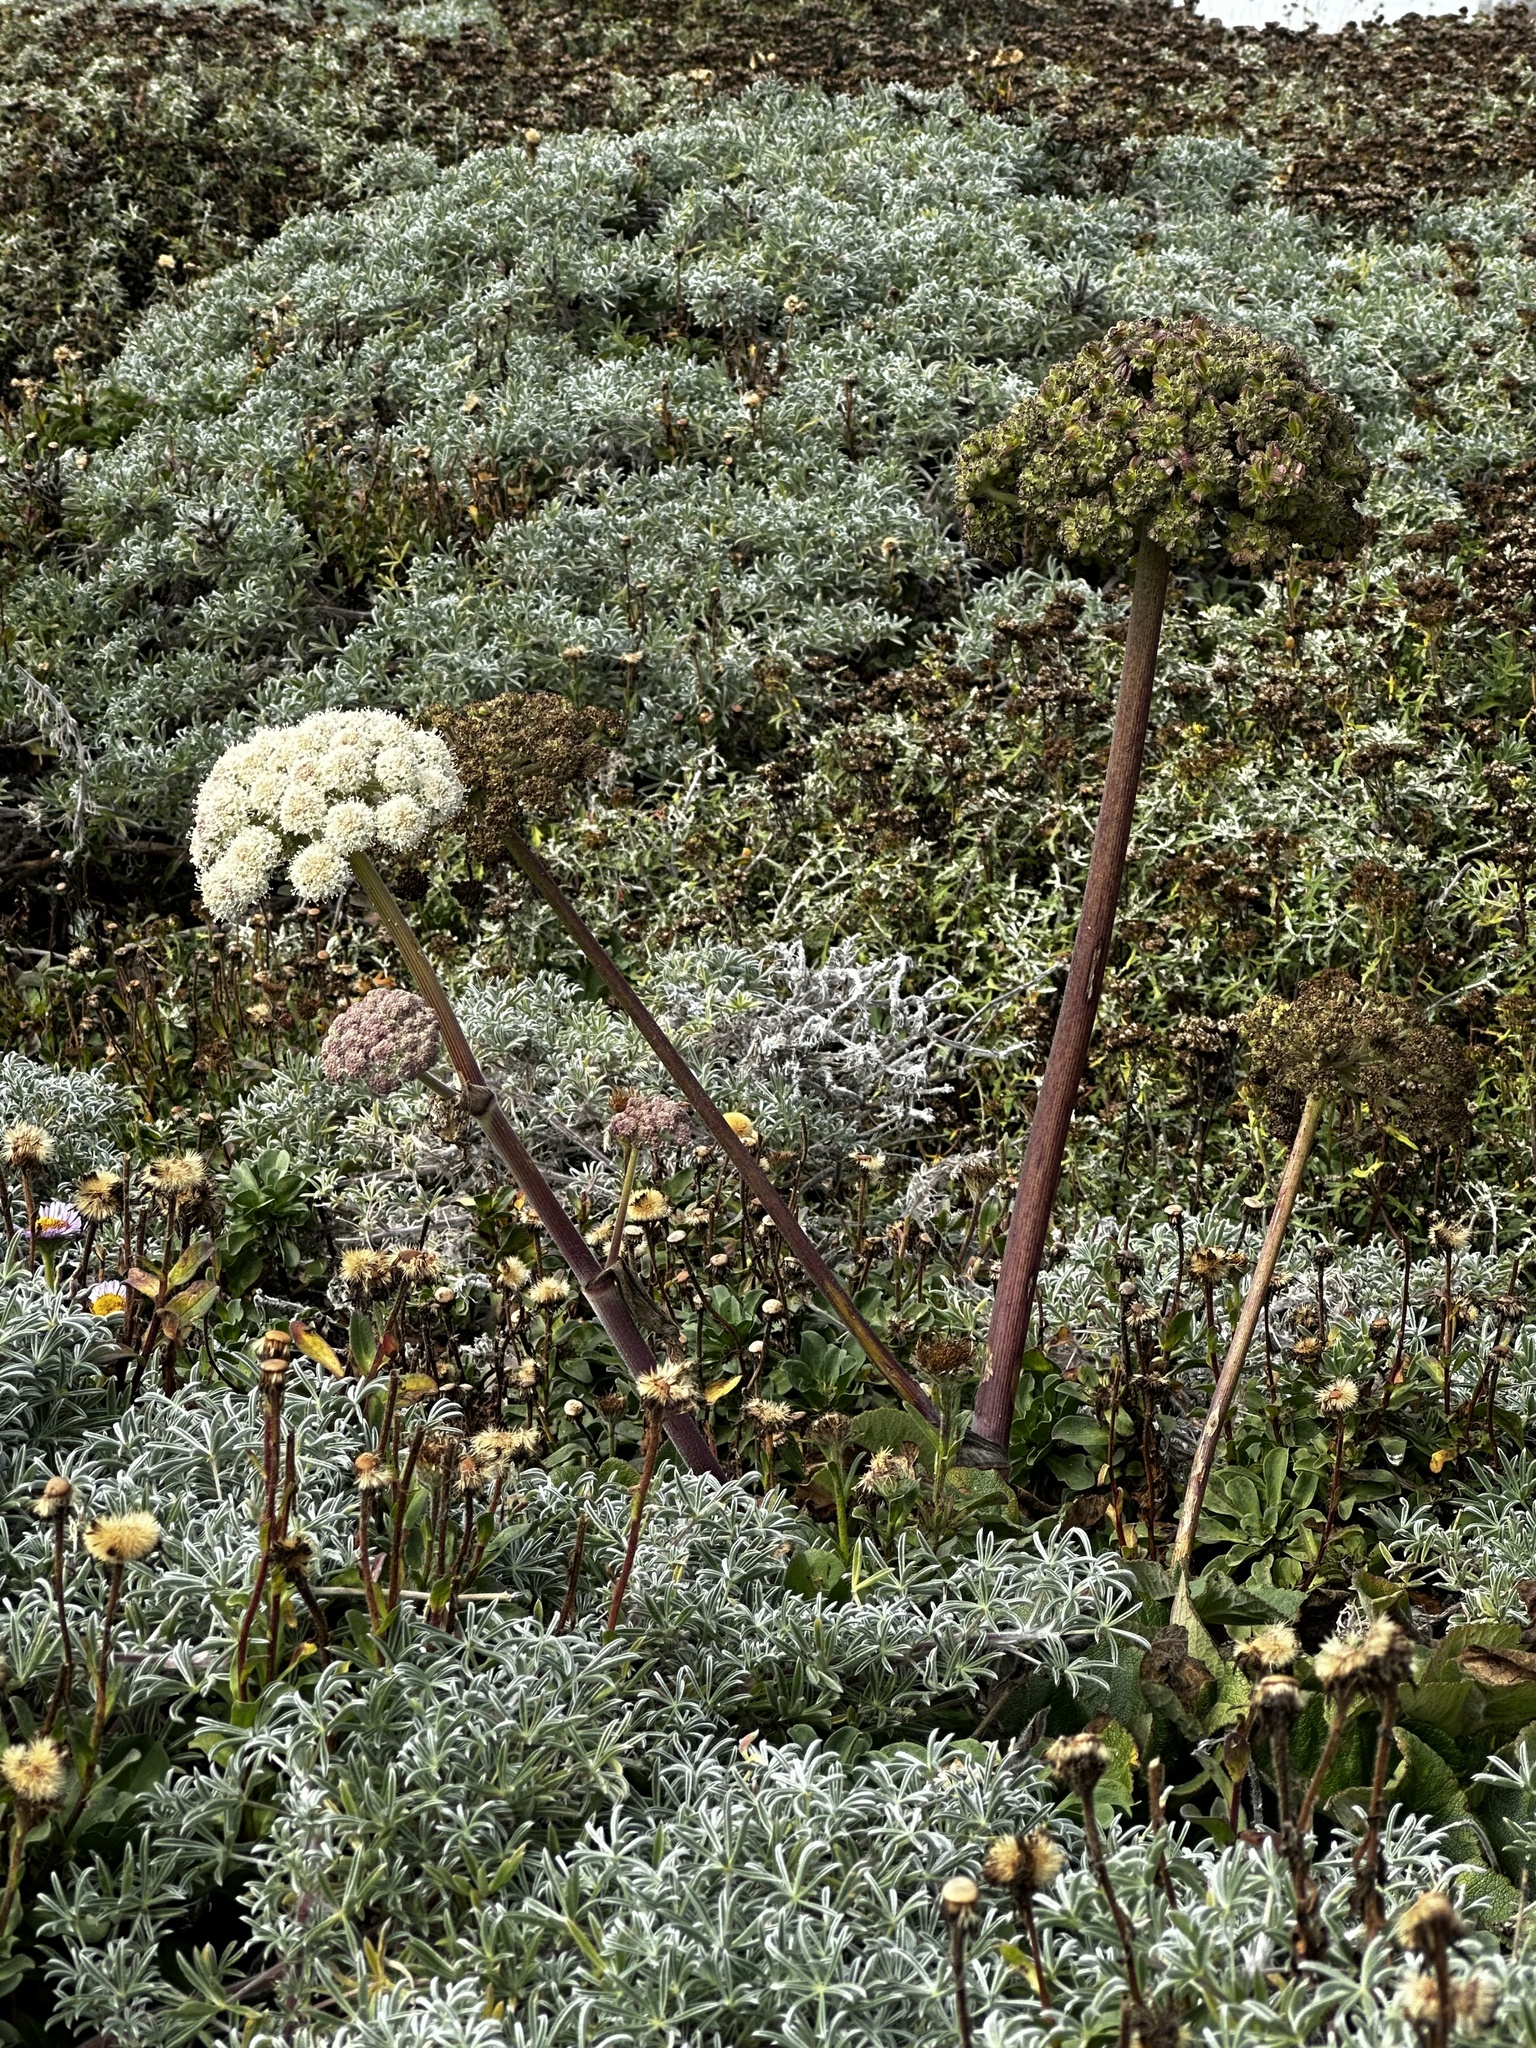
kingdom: Plantae
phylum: Tracheophyta
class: Magnoliopsida
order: Apiales
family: Apiaceae
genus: Angelica
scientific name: Angelica hendersonii
